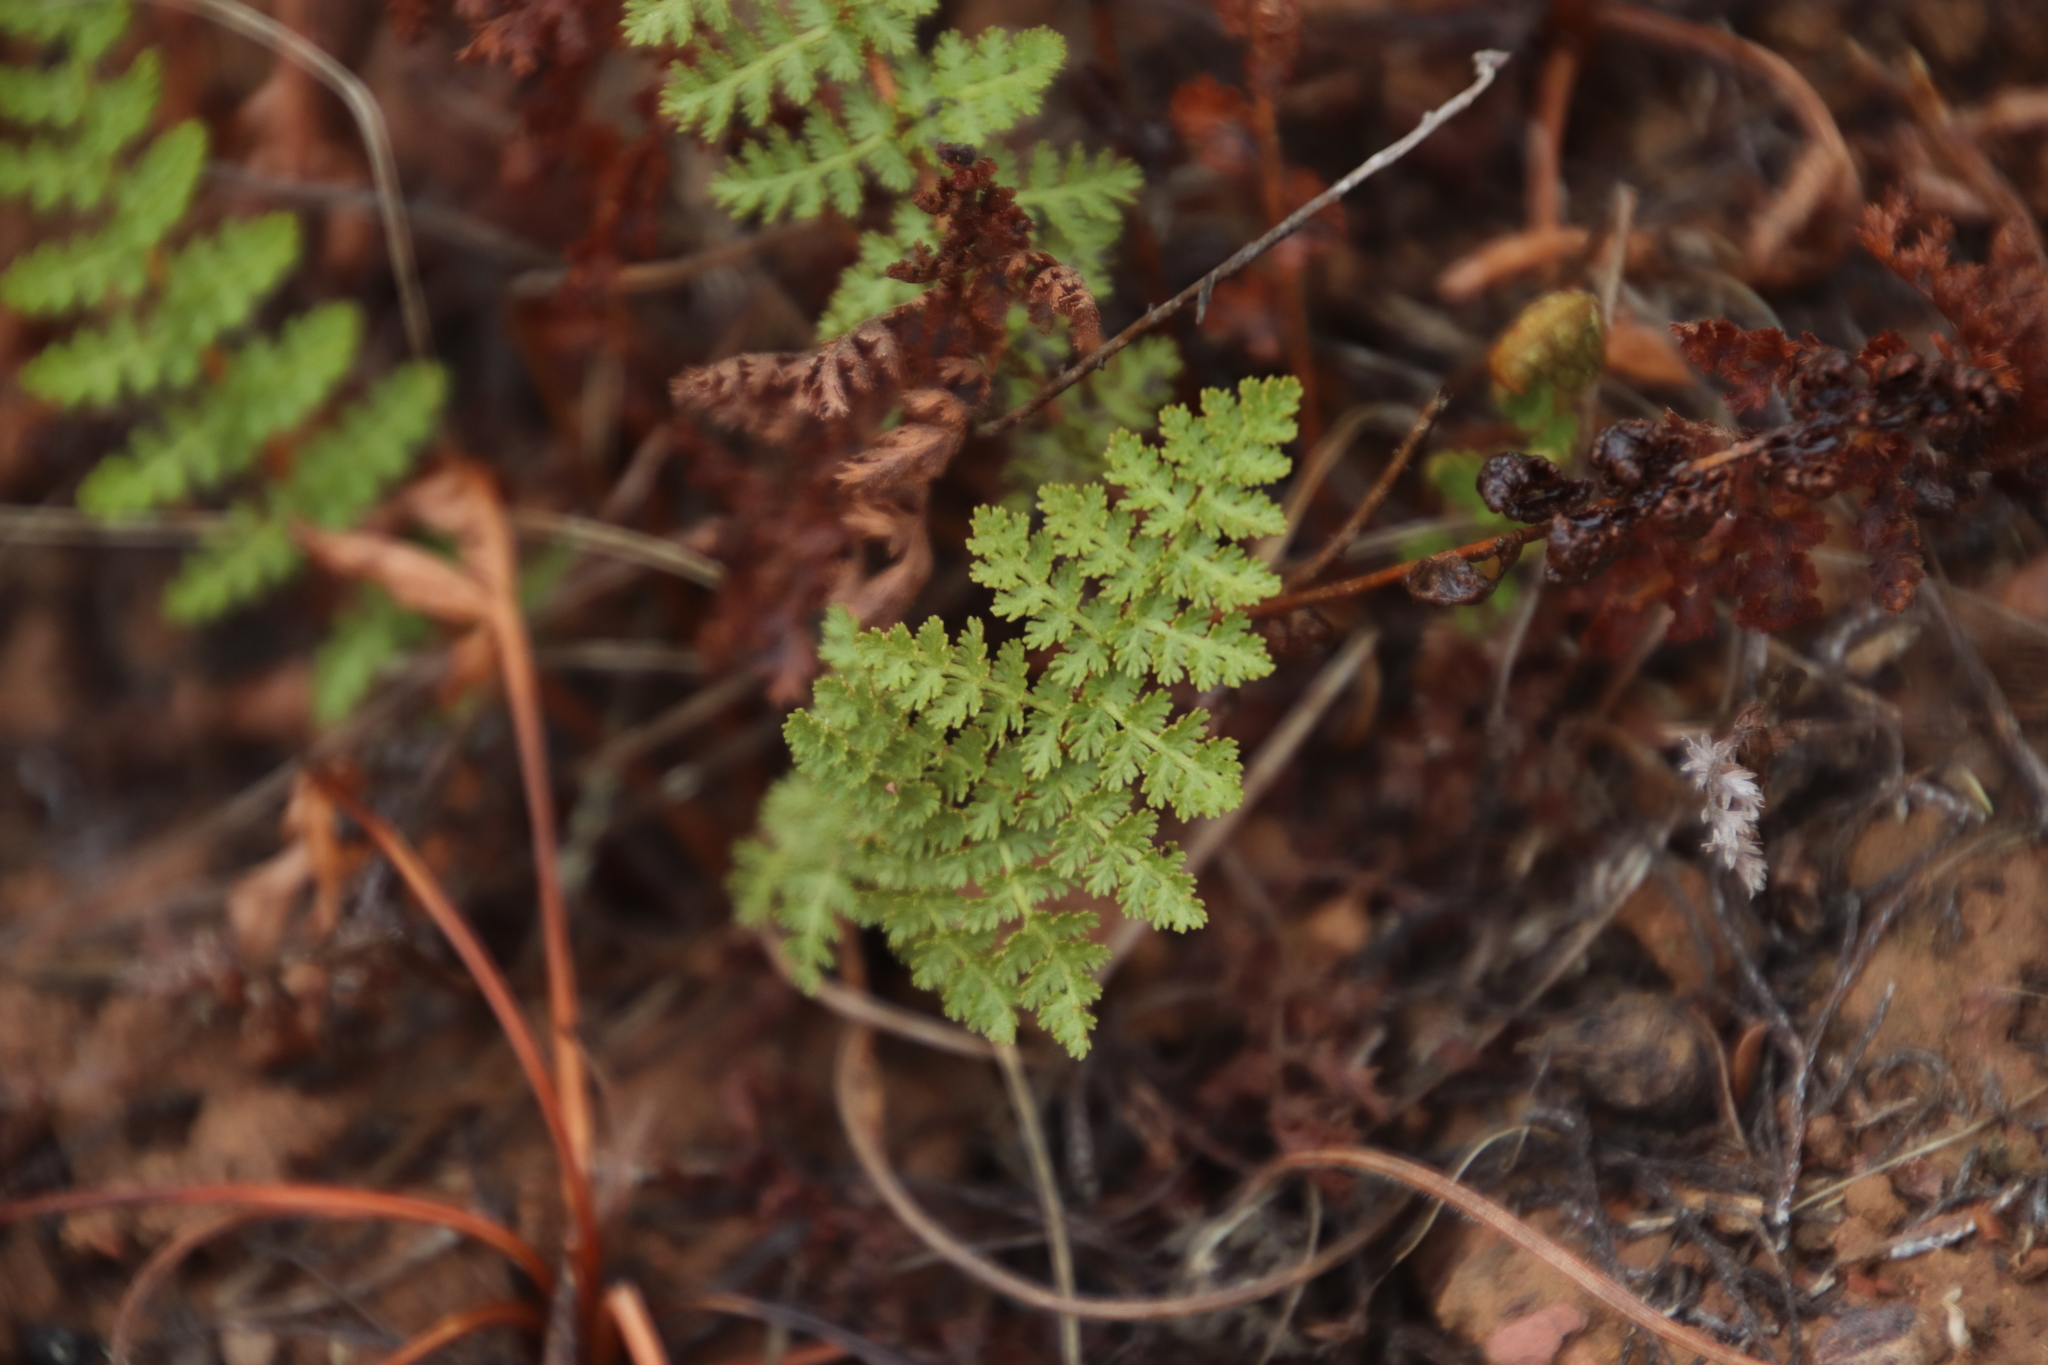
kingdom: Plantae
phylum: Tracheophyta
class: Polypodiopsida
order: Schizaeales
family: Anemiaceae
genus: Anemia
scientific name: Anemia caffrorum
